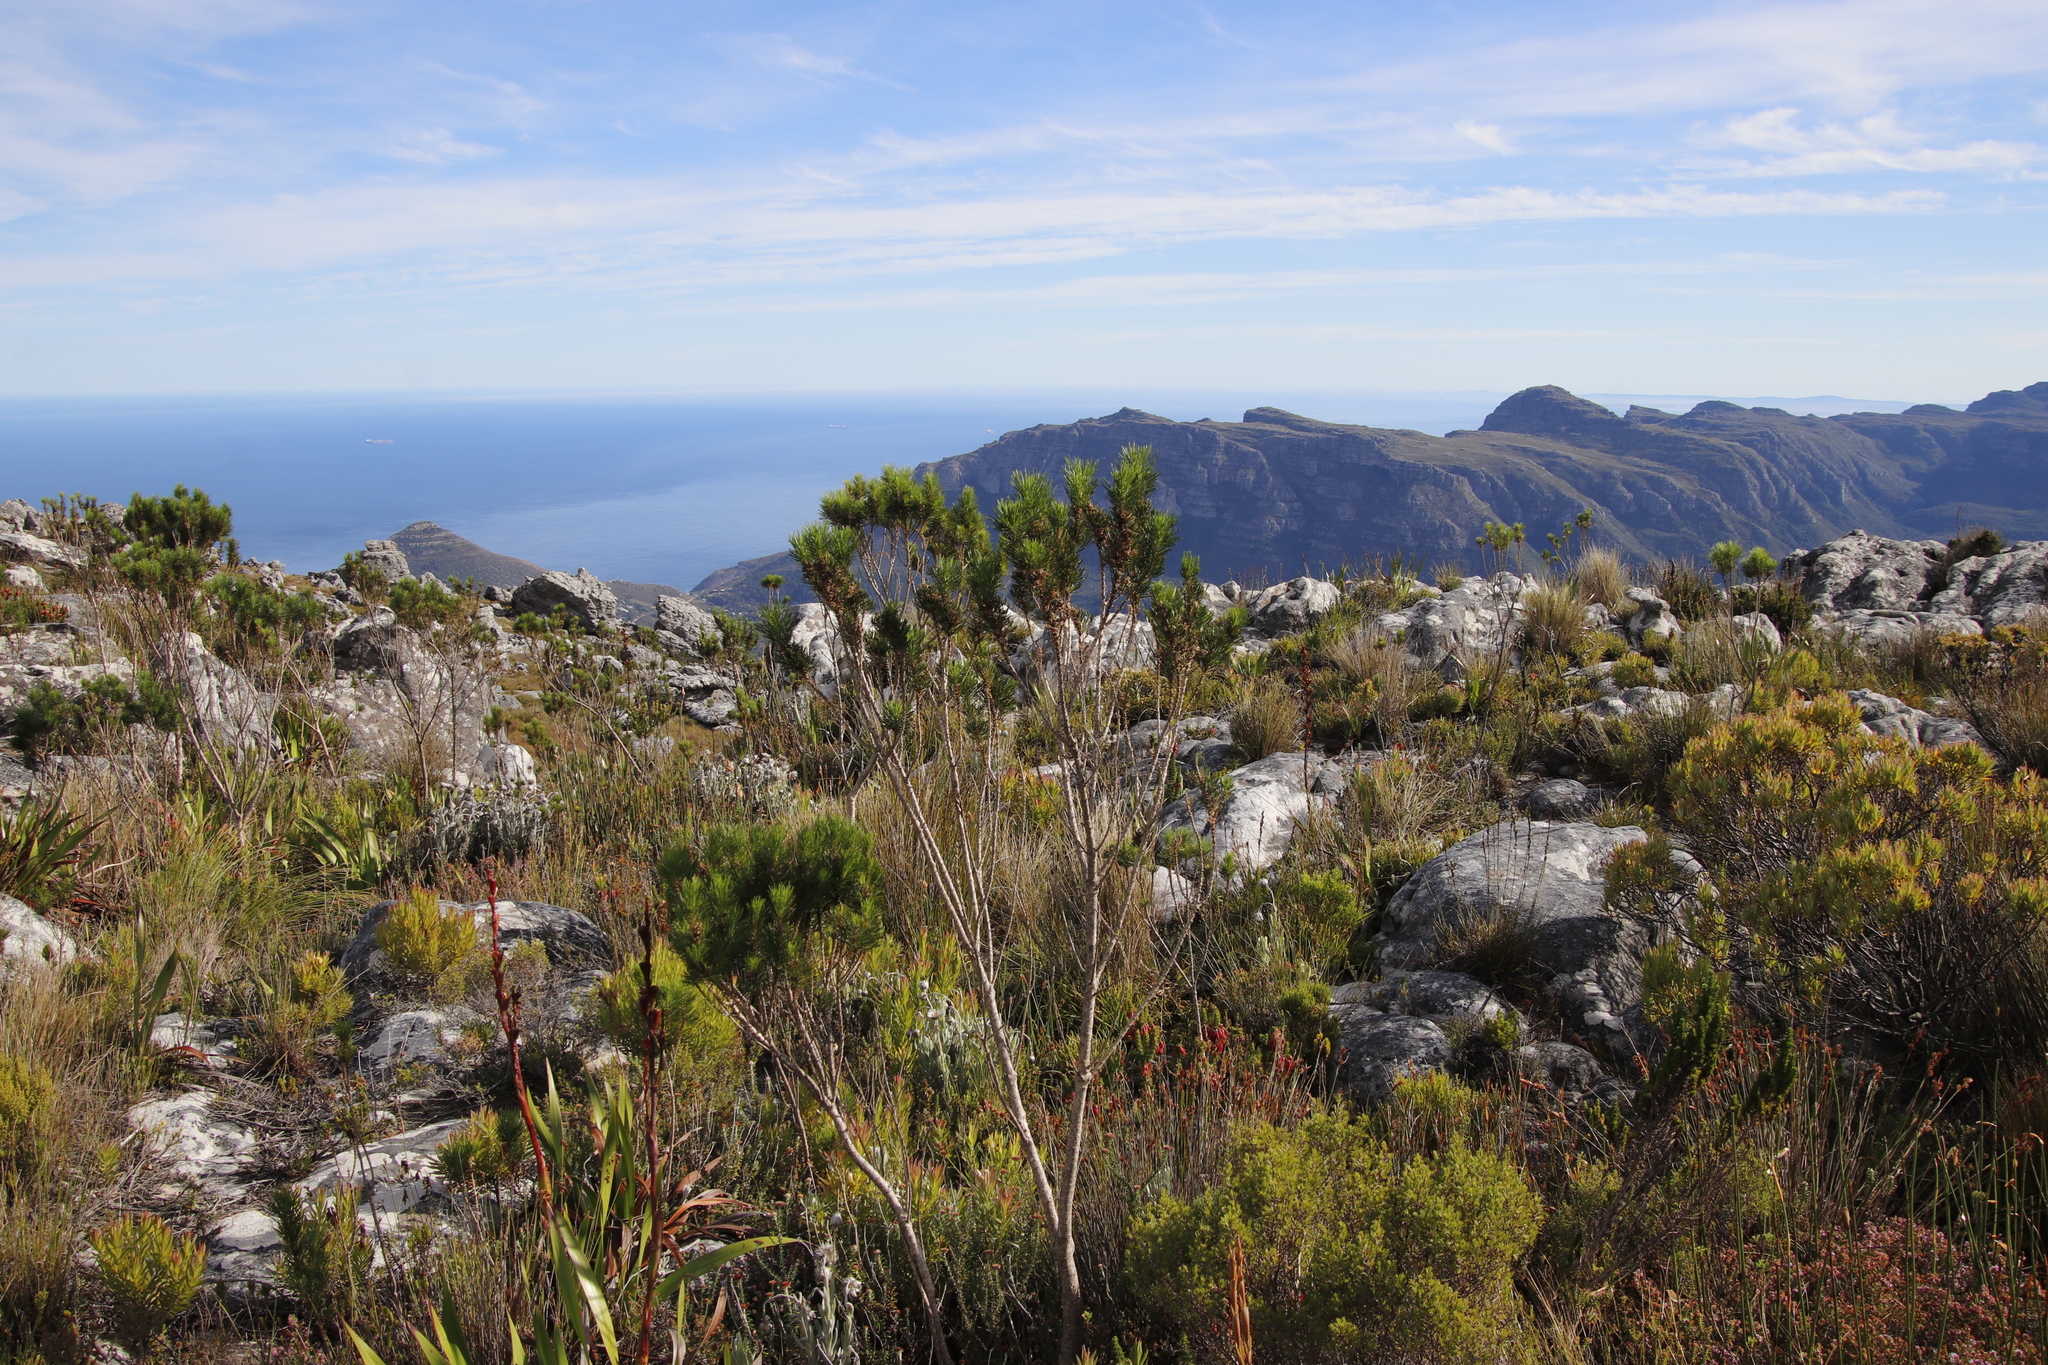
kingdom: Plantae
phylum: Tracheophyta
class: Magnoliopsida
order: Fabales
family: Fabaceae
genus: Psoralea
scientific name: Psoralea pinnata
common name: African scurfpea
